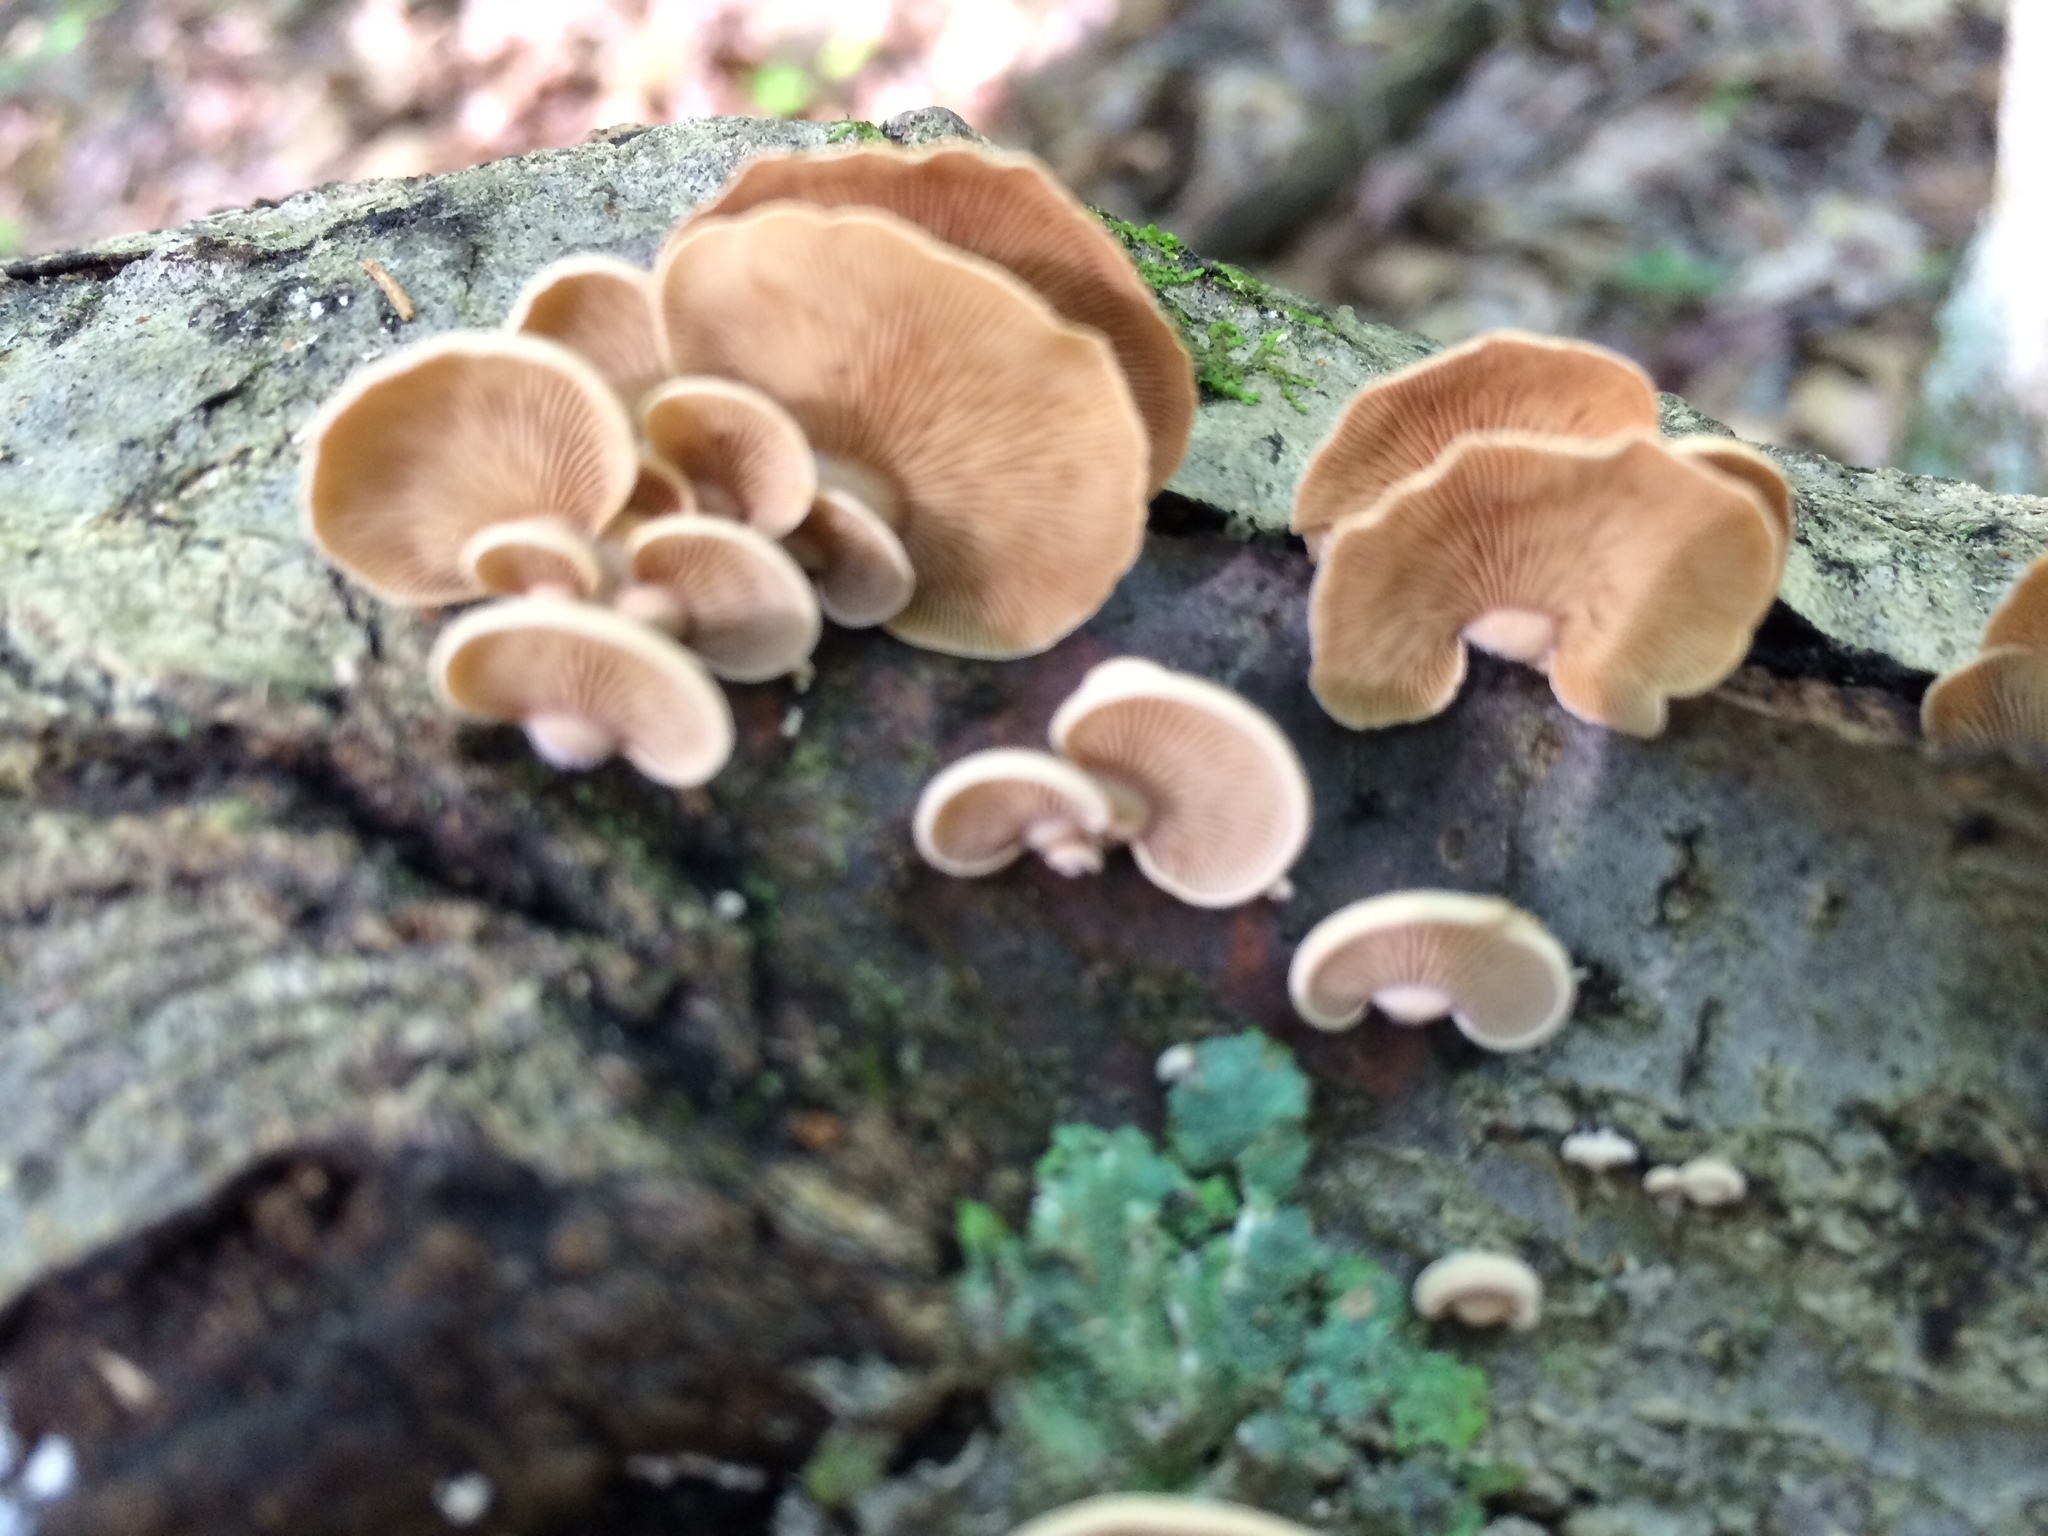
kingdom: Fungi
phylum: Basidiomycota
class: Agaricomycetes
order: Agaricales
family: Mycenaceae
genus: Panellus
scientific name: Panellus stipticus
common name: Bitter oysterling
